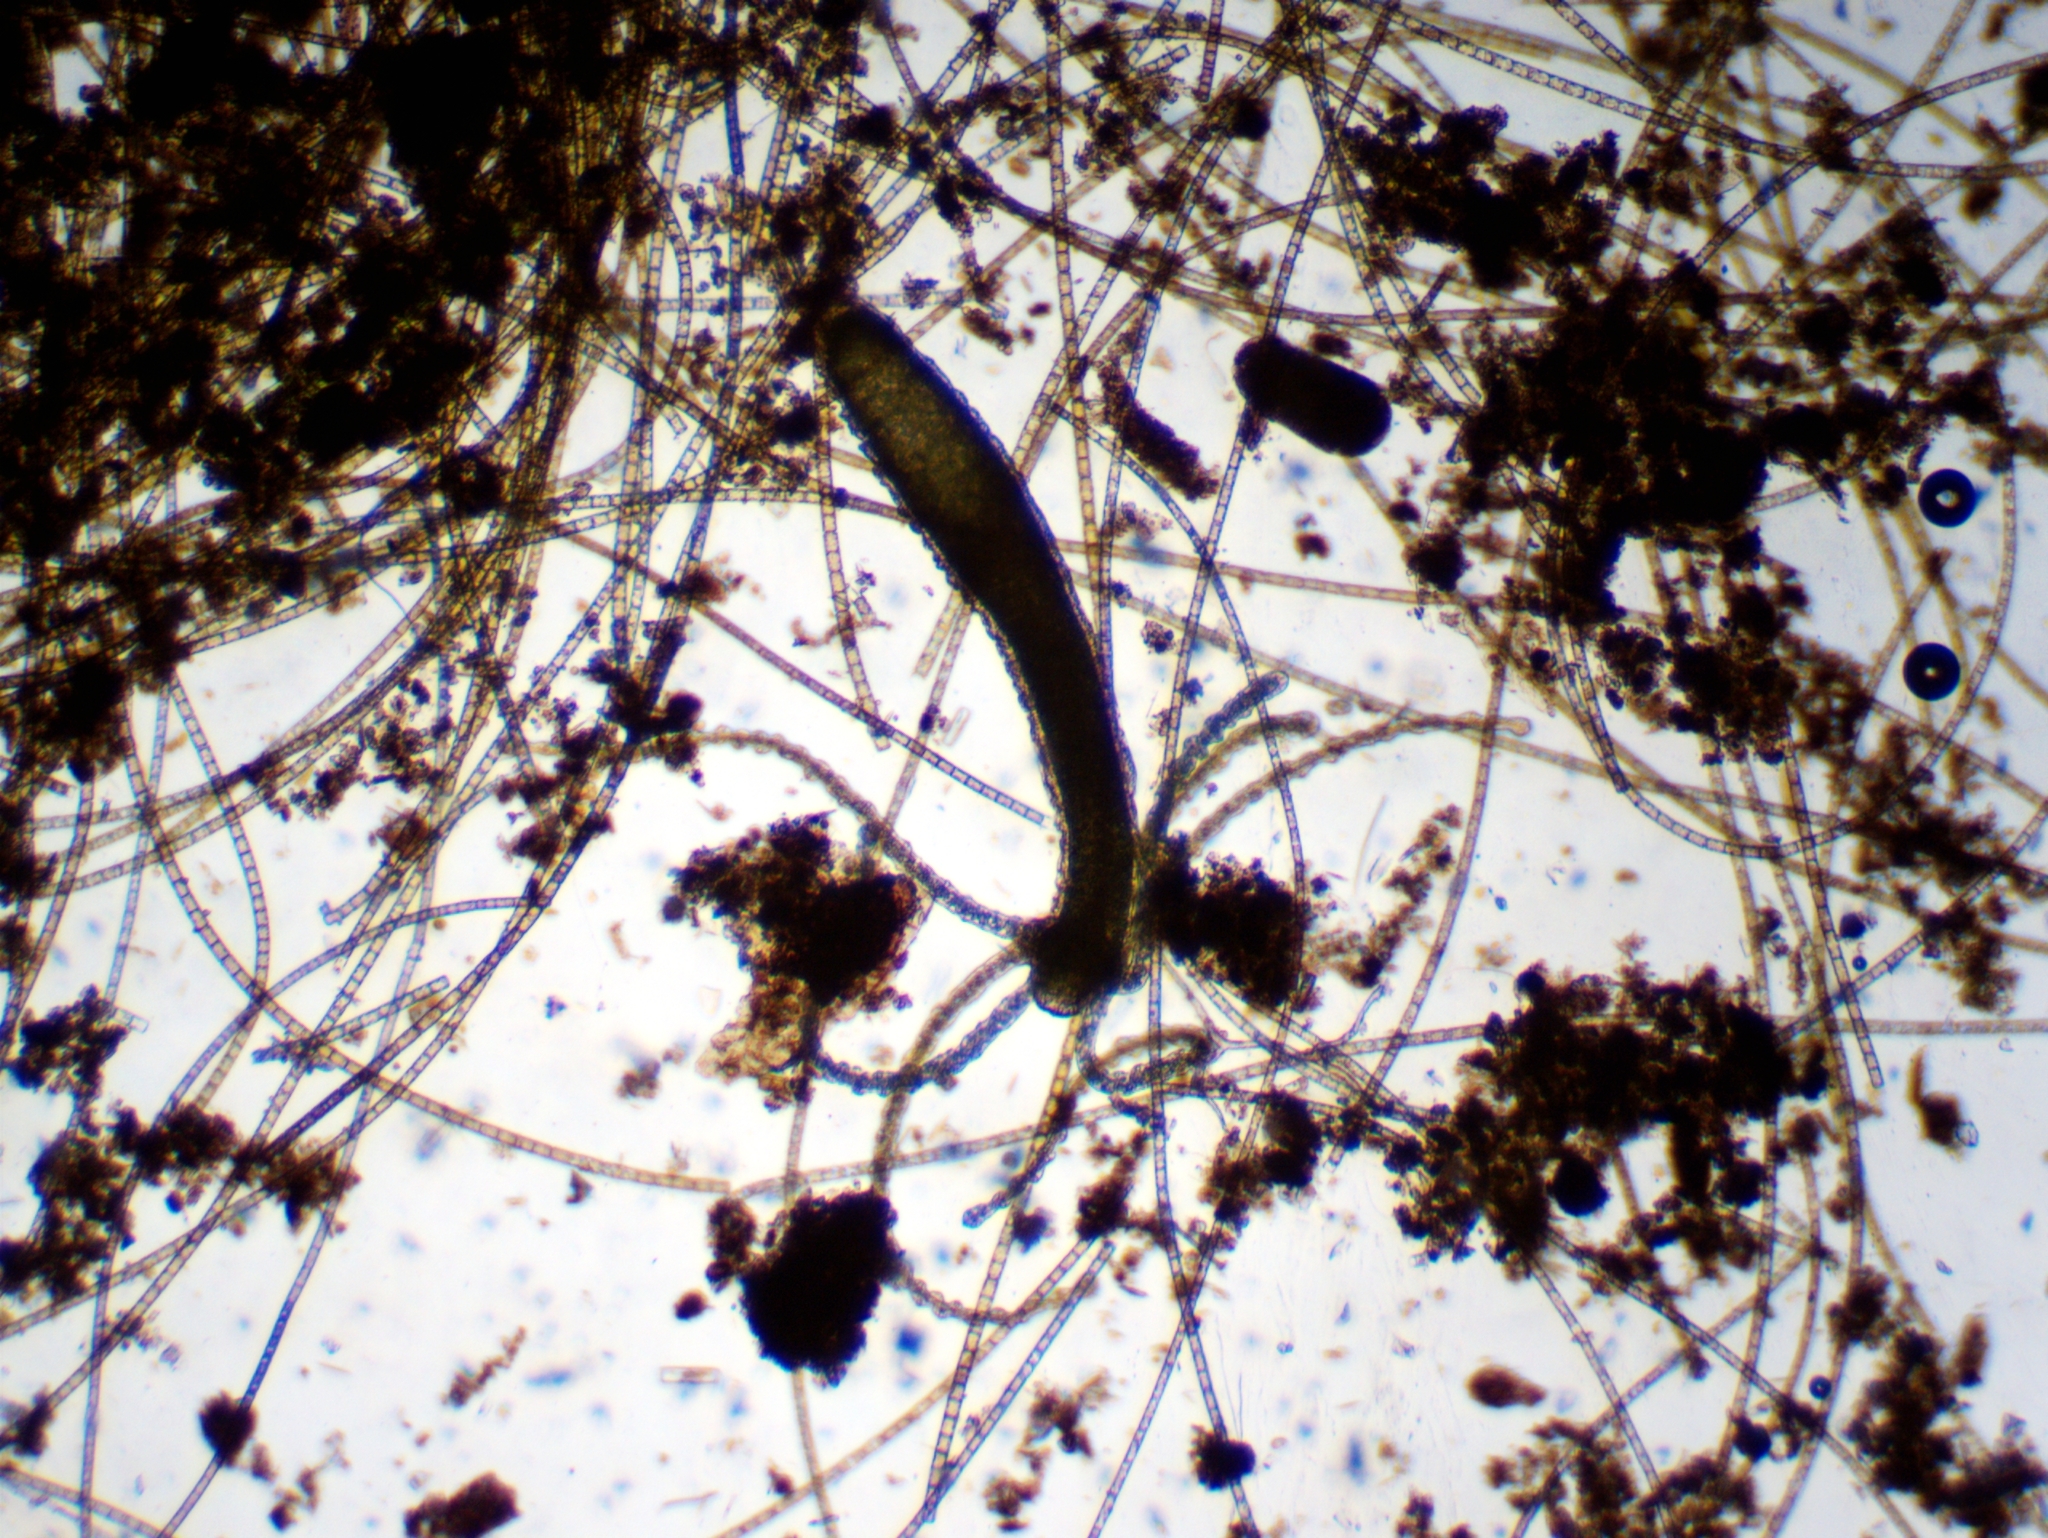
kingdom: Animalia
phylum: Cnidaria
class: Hydrozoa
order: Anthoathecata
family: Hydridae
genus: Hydra
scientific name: Hydra viridissima
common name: Green hydra
